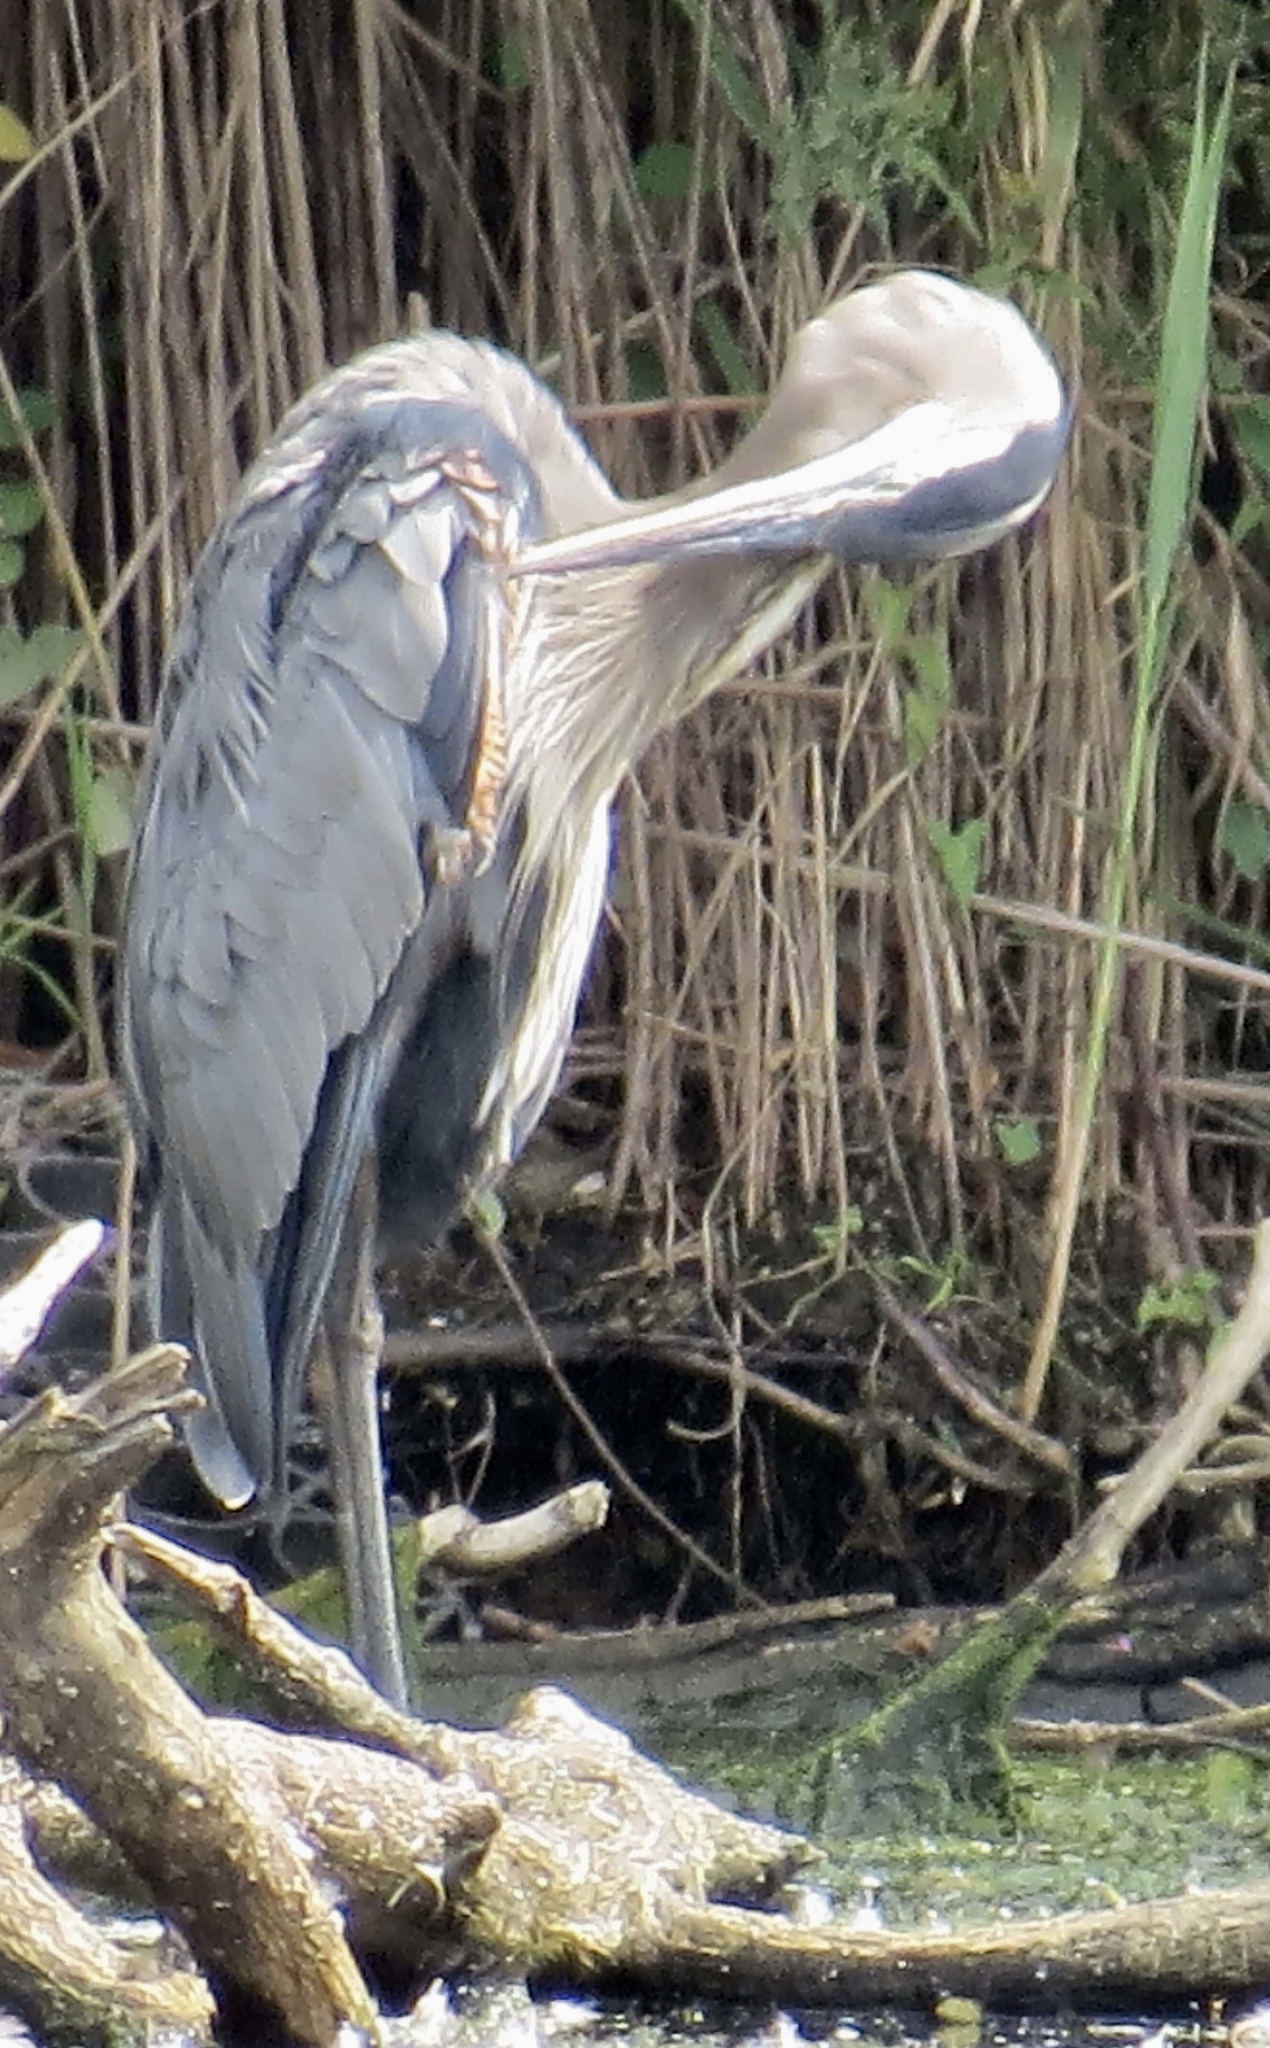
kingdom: Animalia
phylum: Chordata
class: Aves
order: Pelecaniformes
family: Ardeidae
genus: Ardea
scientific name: Ardea herodias
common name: Great blue heron
